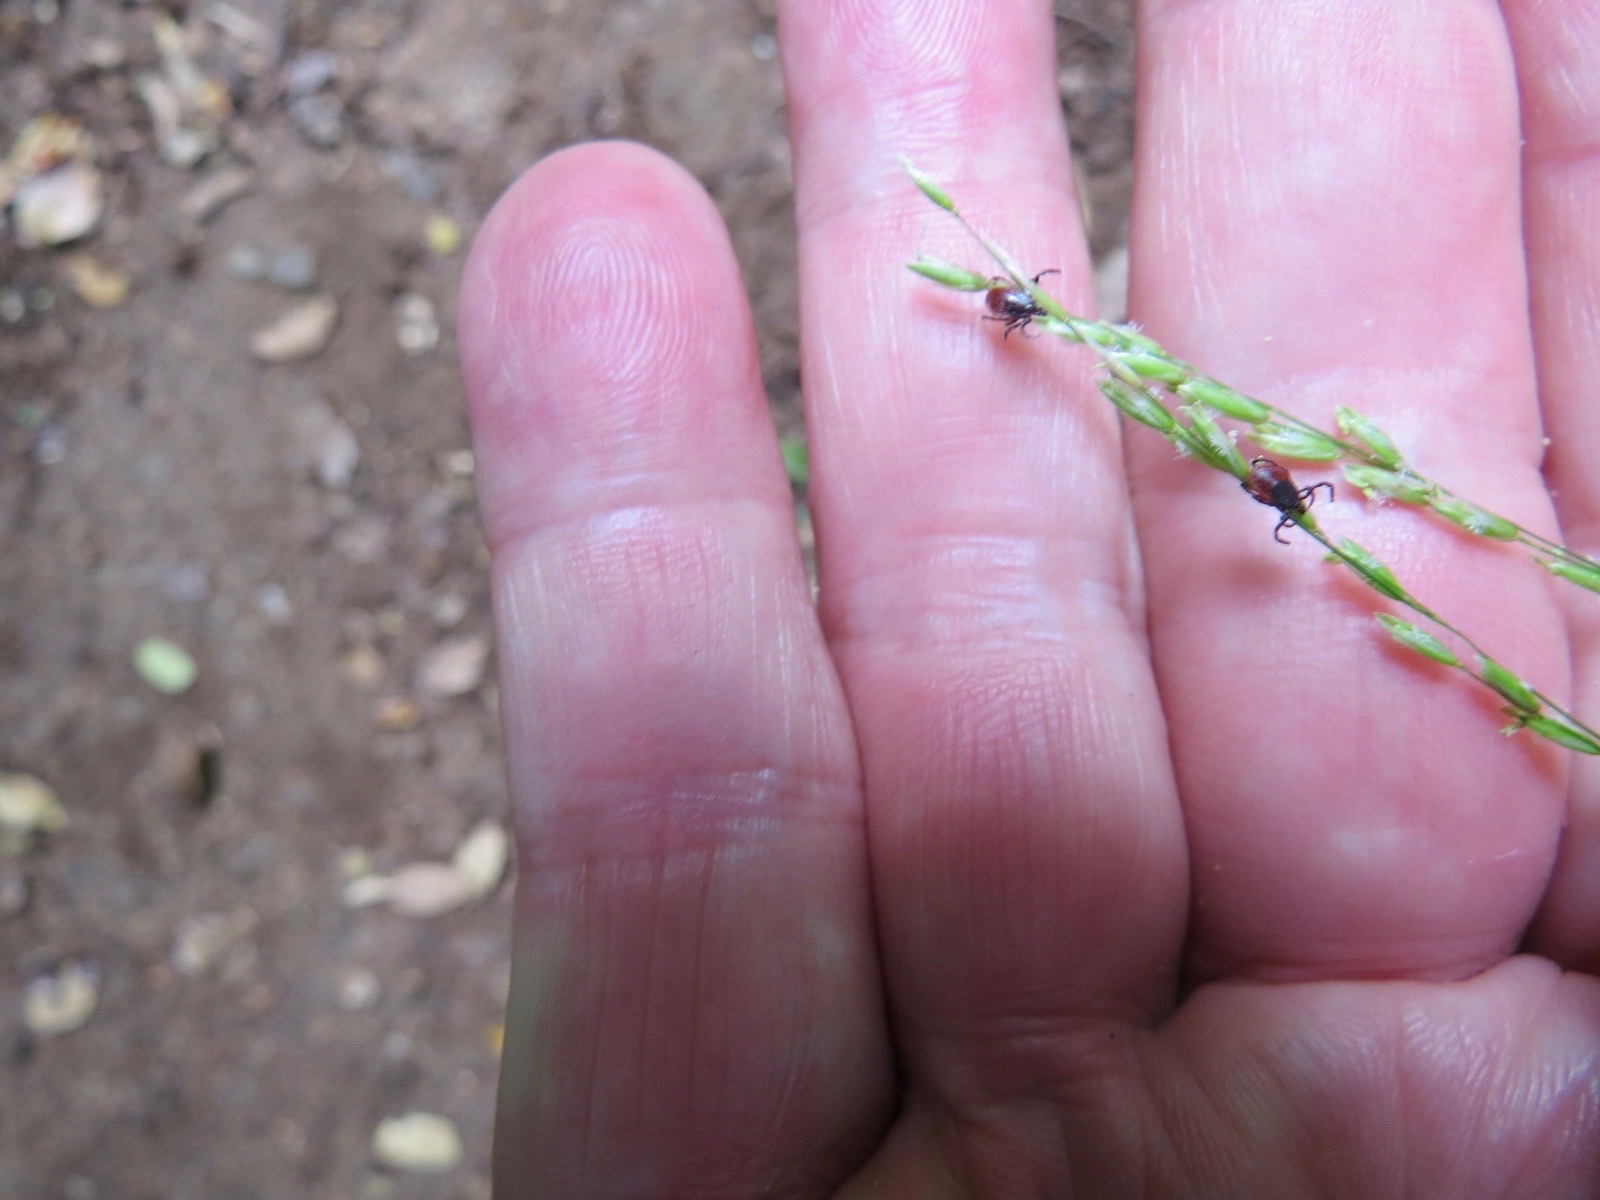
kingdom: Animalia
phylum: Arthropoda
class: Arachnida
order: Ixodida
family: Ixodidae
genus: Ixodes
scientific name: Ixodes pacificus
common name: California black-legged tick
